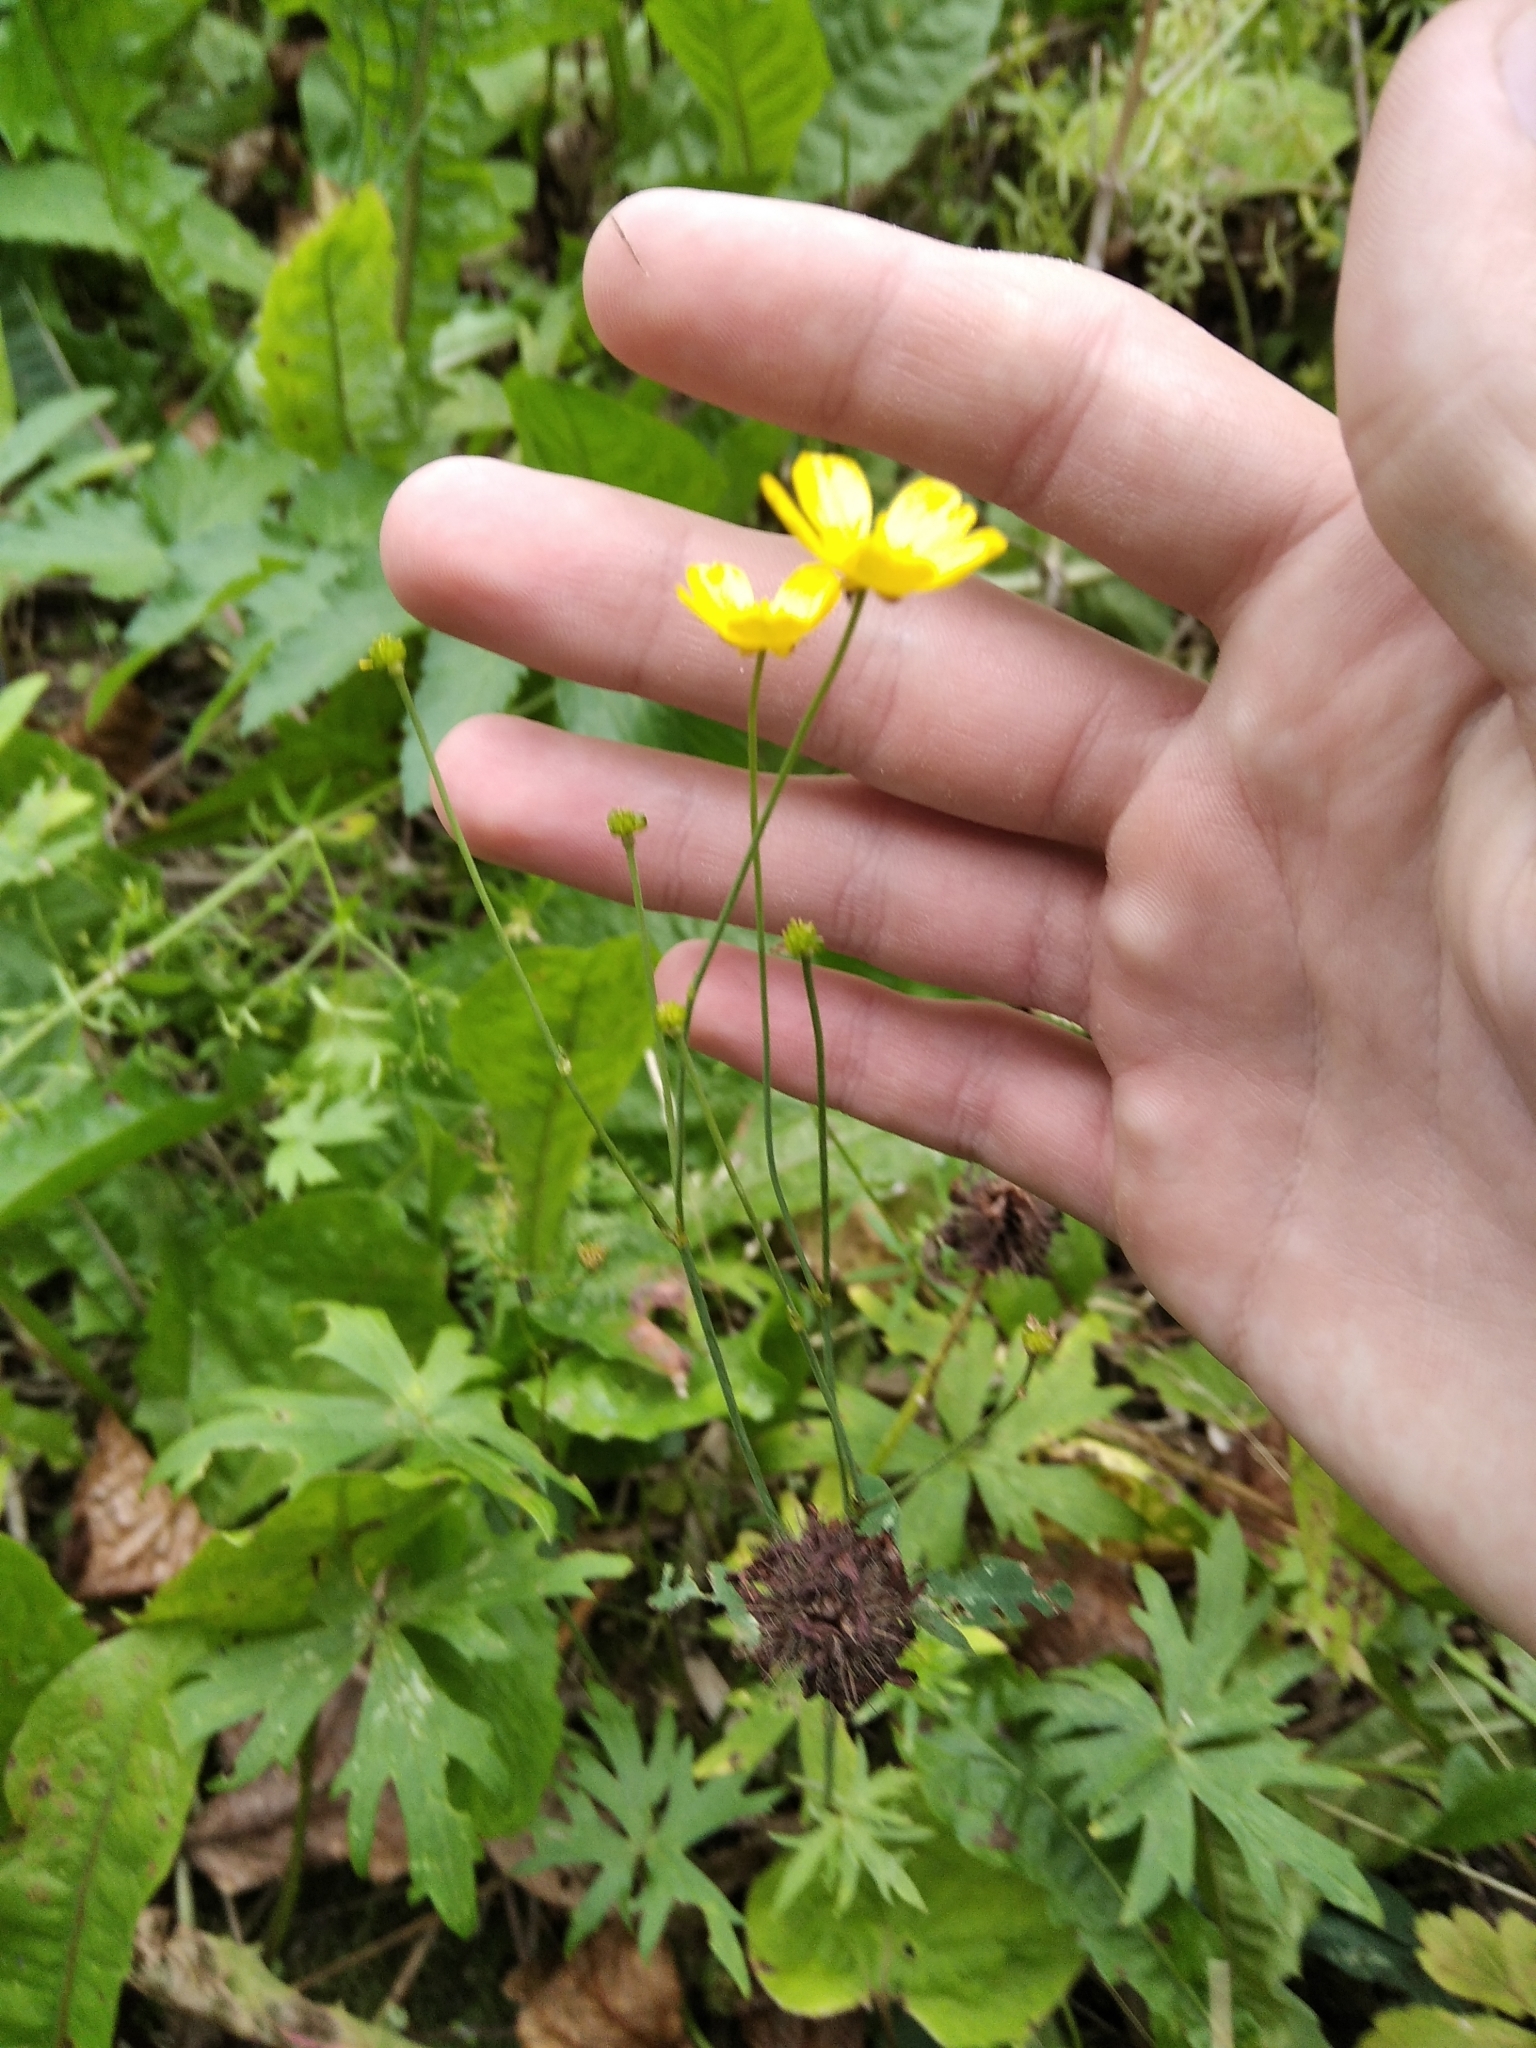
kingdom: Plantae
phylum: Tracheophyta
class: Magnoliopsida
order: Ranunculales
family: Ranunculaceae
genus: Ranunculus
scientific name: Ranunculus acris
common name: Meadow buttercup
